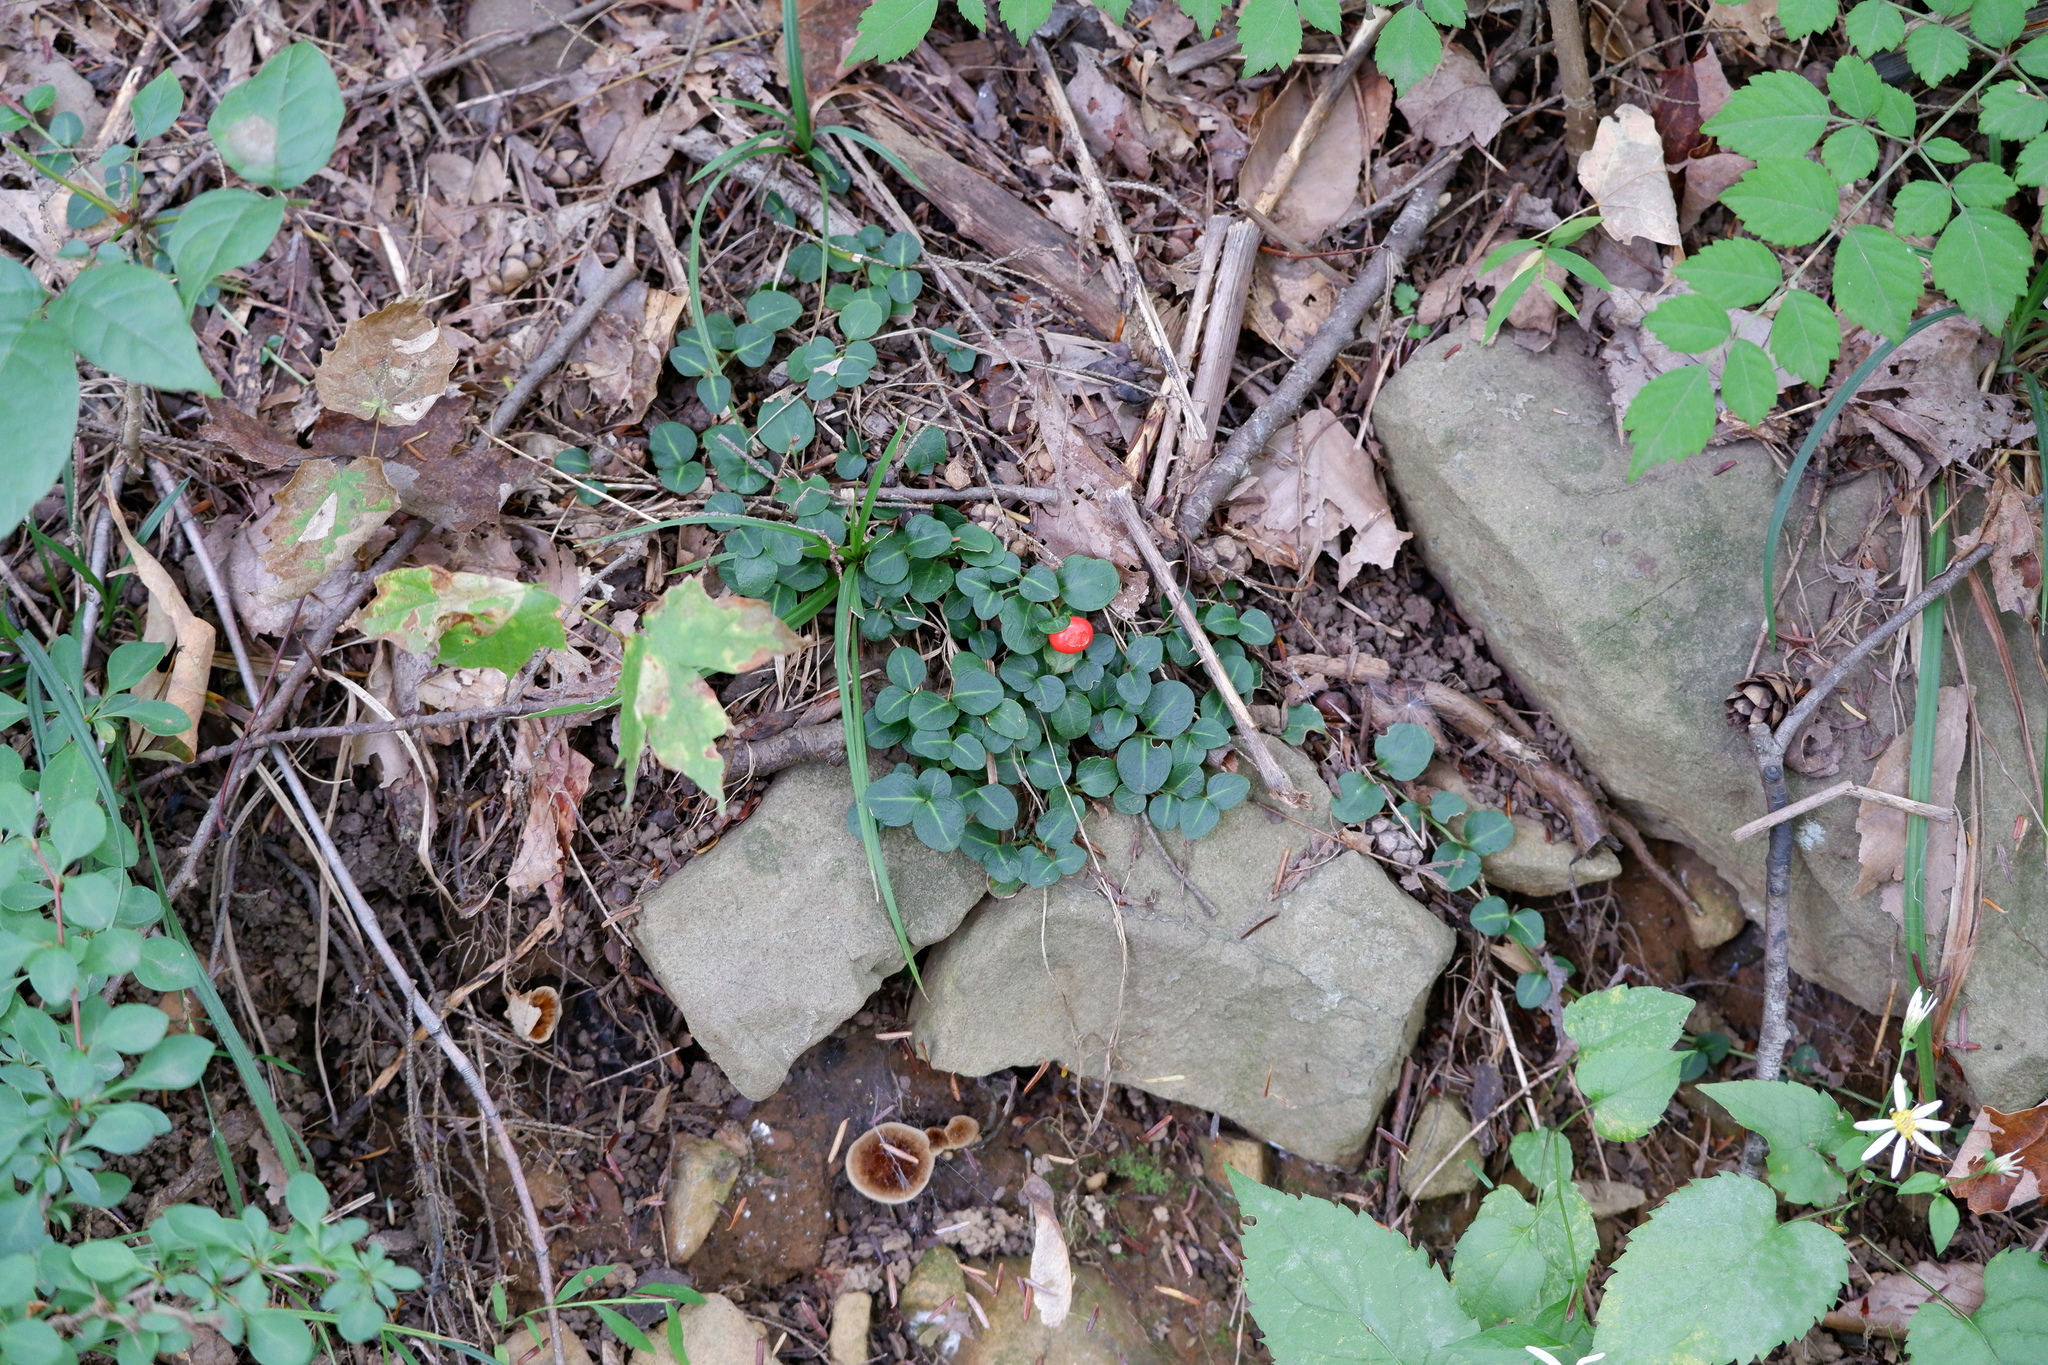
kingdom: Plantae
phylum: Tracheophyta
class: Magnoliopsida
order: Gentianales
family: Rubiaceae
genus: Mitchella
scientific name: Mitchella repens
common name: Partridge-berry
